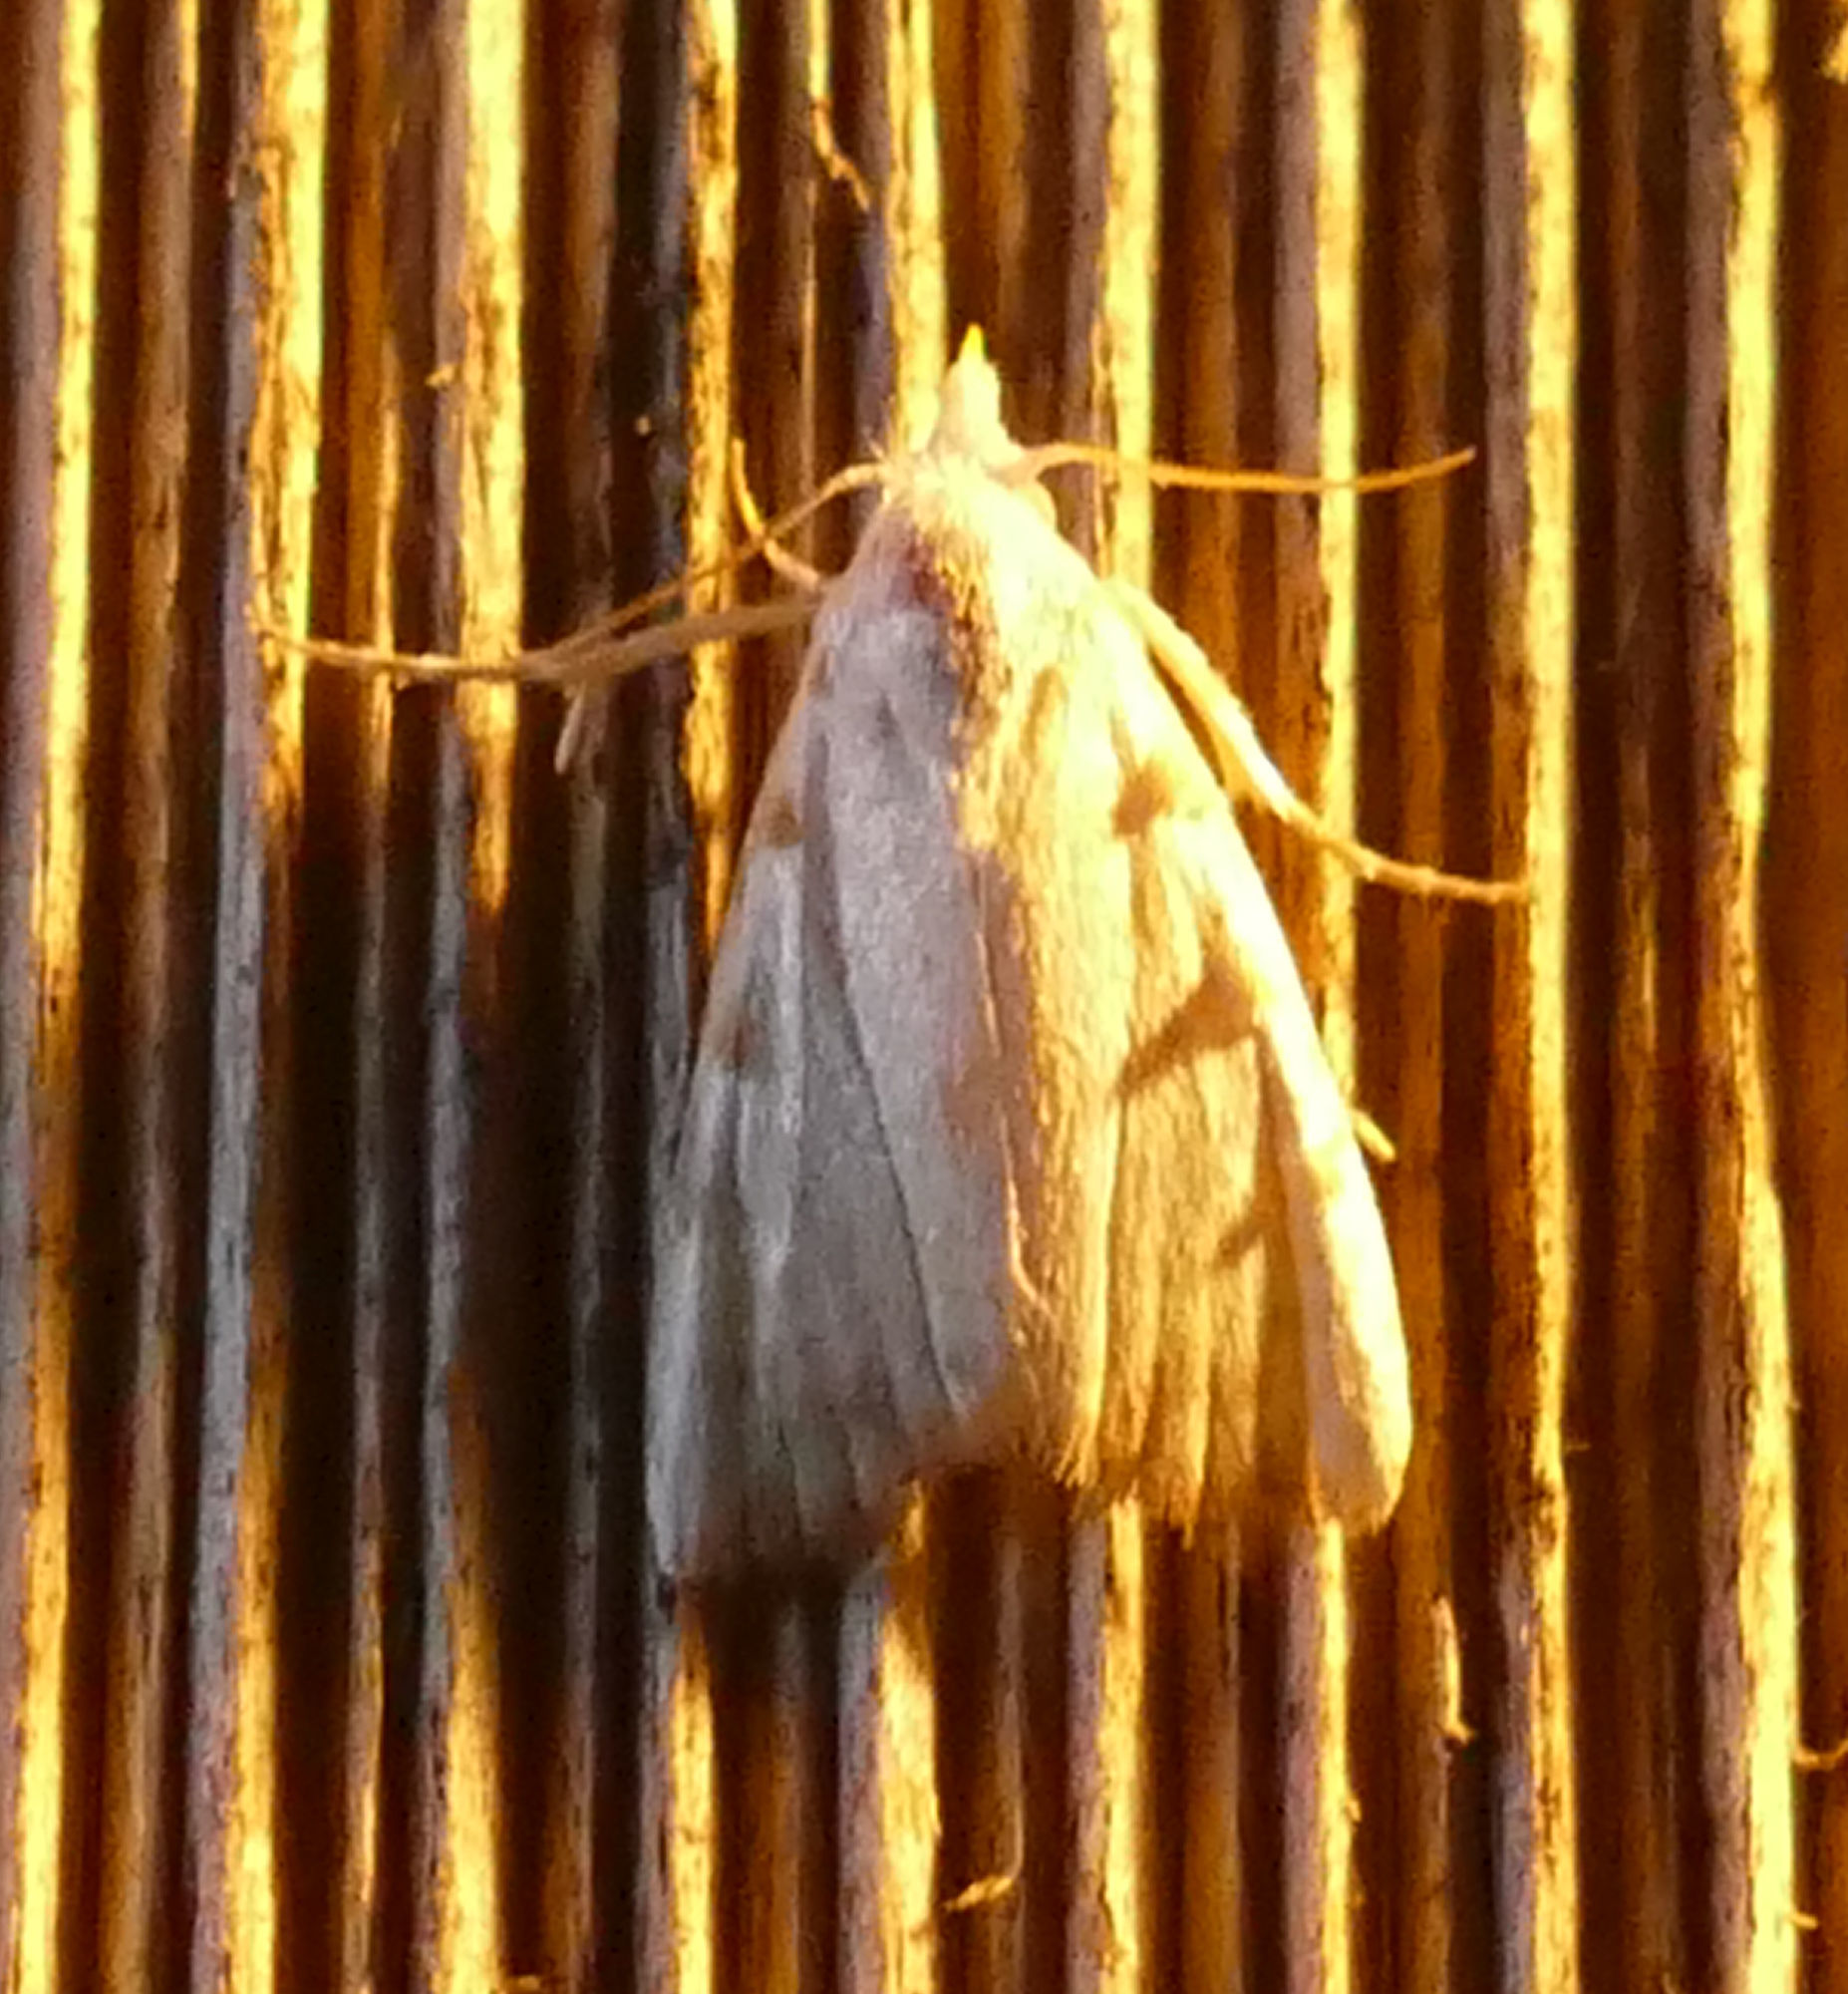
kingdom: Animalia
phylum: Arthropoda
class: Insecta
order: Lepidoptera
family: Nolidae
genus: Nola
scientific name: Nola cereella
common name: Sorghum webworm moth
